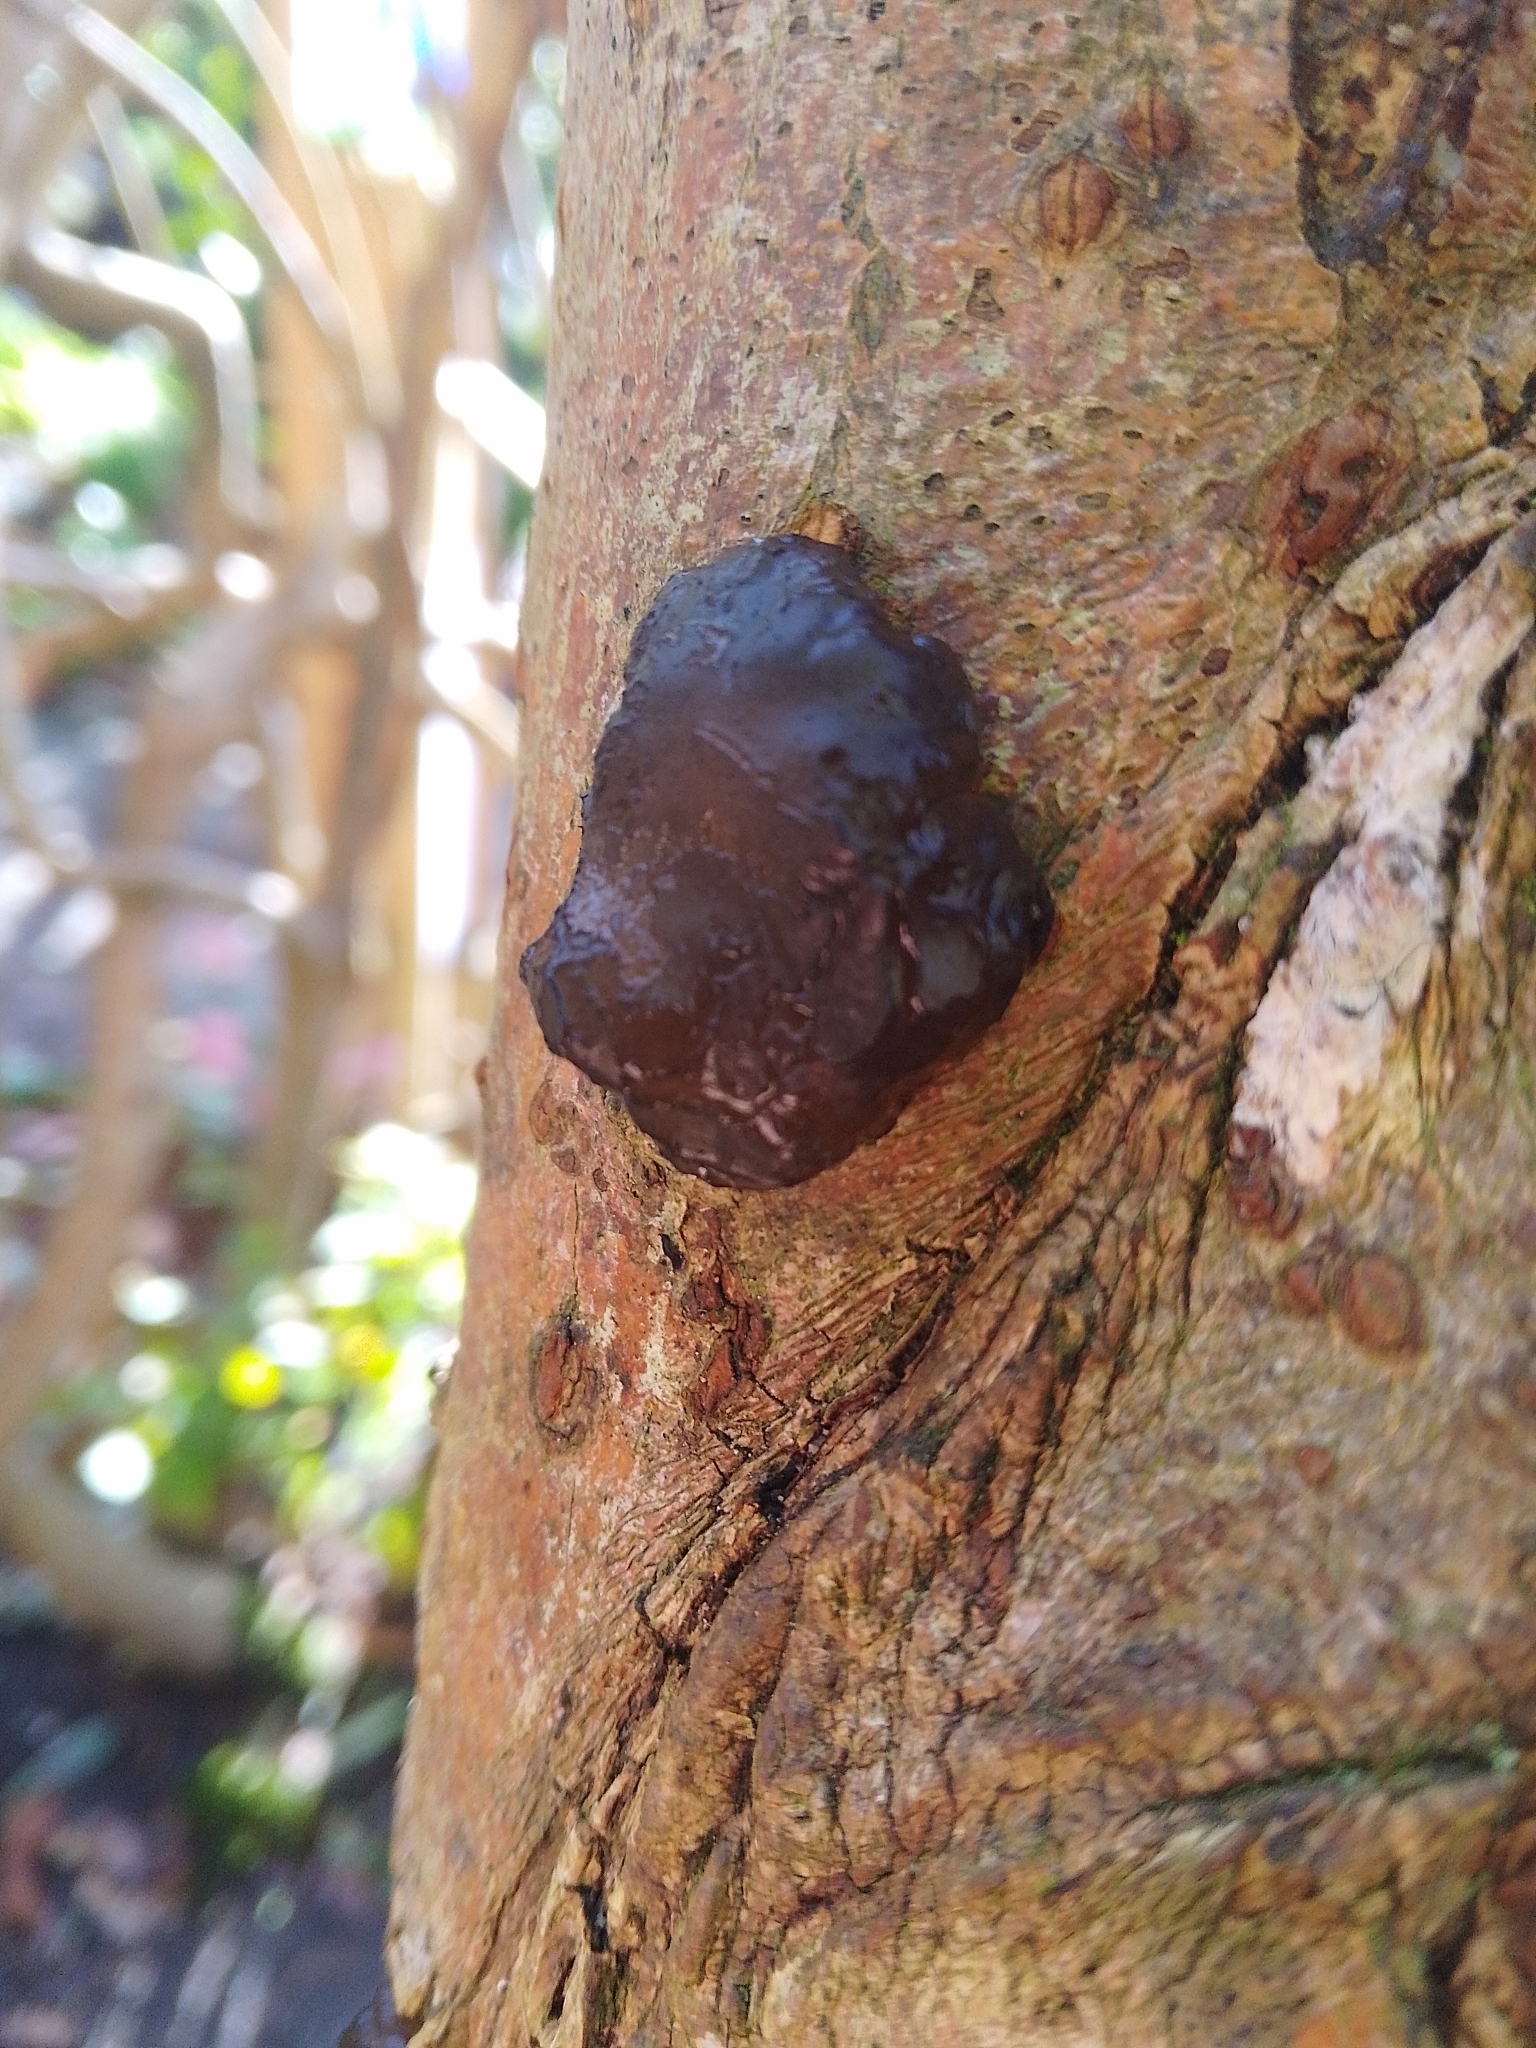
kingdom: Fungi
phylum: Ascomycota
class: Leotiomycetes
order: Phacidiales
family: Phacidiaceae
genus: Bulgaria
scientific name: Bulgaria inquinans
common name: Black bulgar
